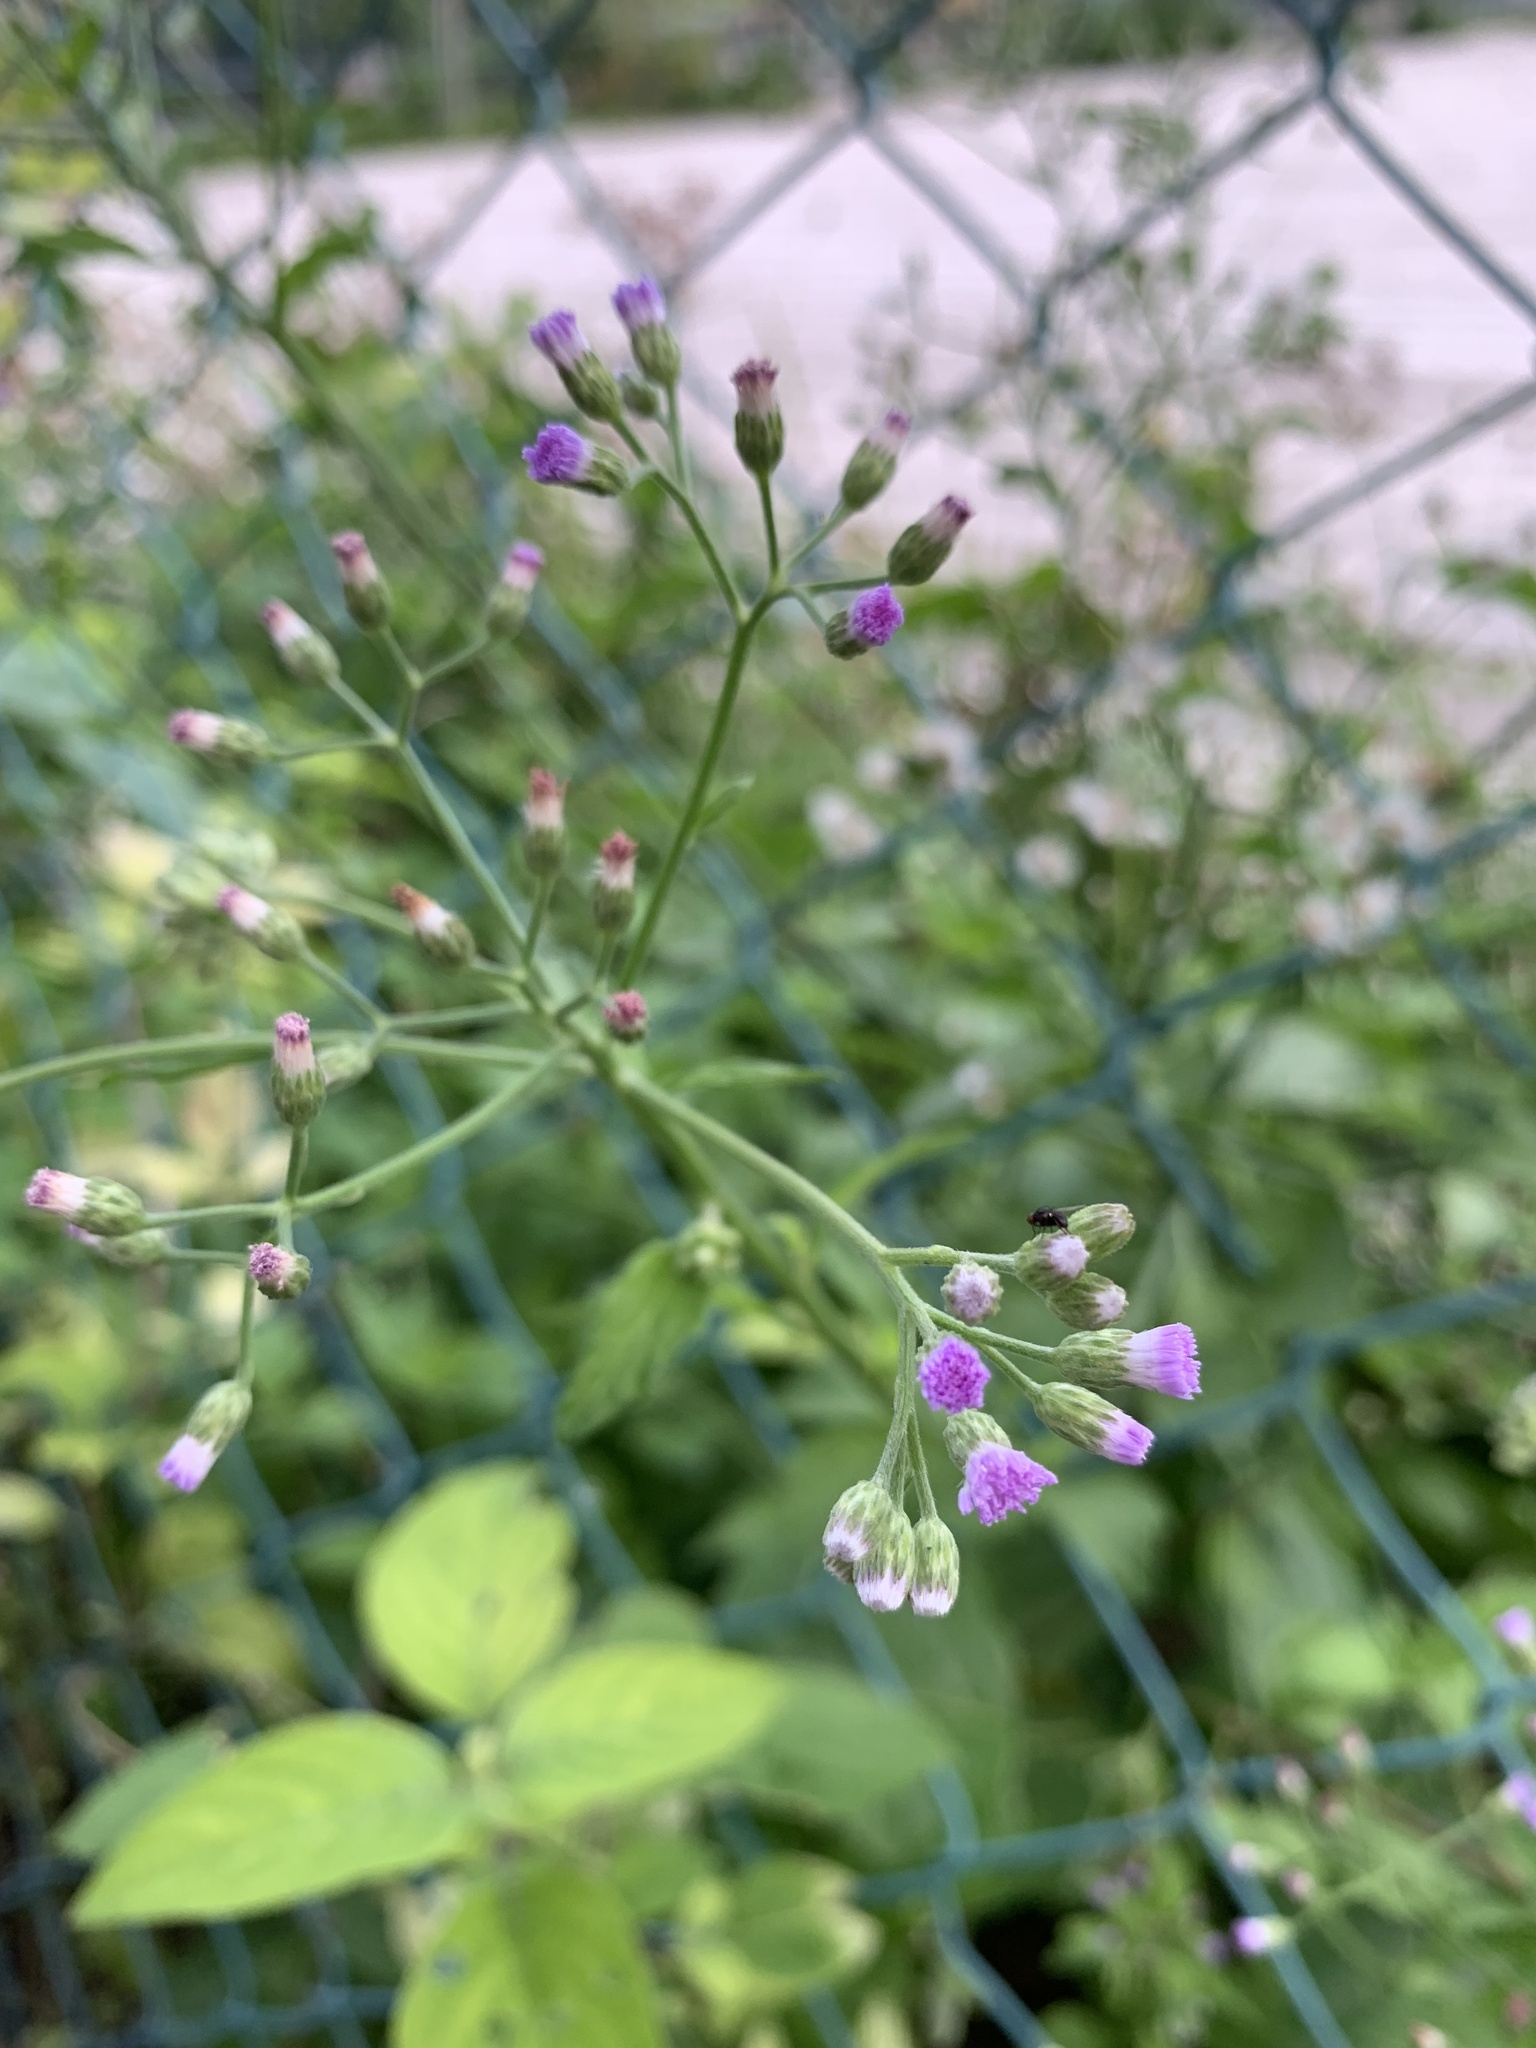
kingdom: Plantae
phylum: Tracheophyta
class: Magnoliopsida
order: Asterales
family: Asteraceae
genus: Cyanthillium
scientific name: Cyanthillium cinereum
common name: Little ironweed
